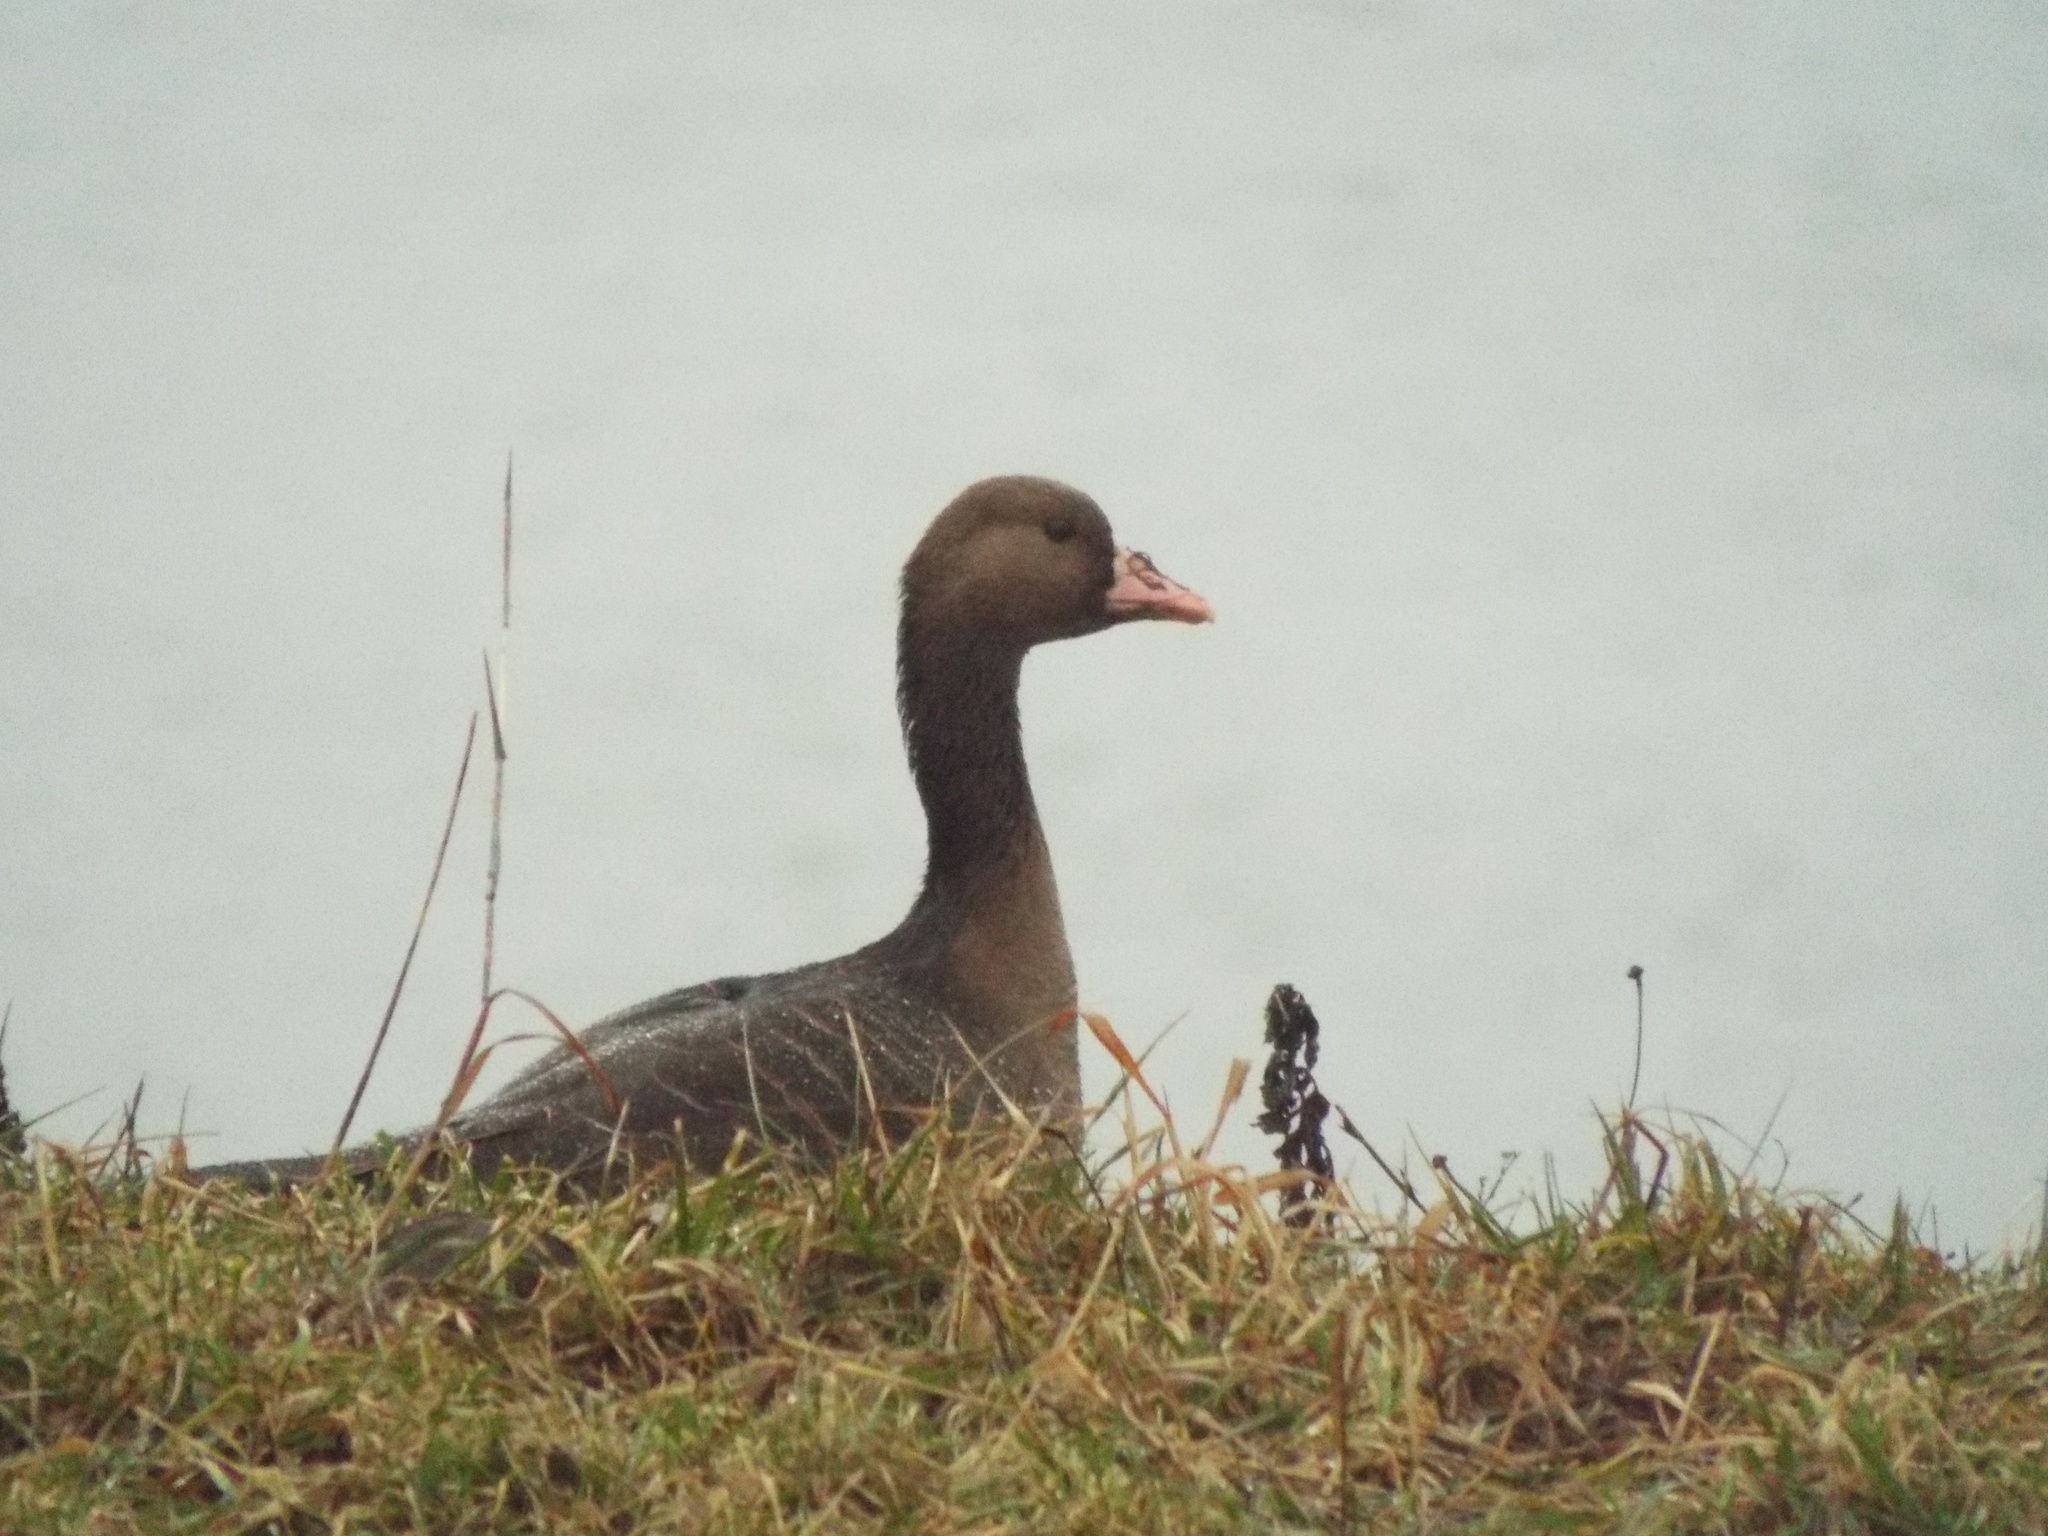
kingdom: Animalia
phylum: Chordata
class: Aves
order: Anseriformes
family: Anatidae
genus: Anser
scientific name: Anser albifrons
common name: Greater white-fronted goose
